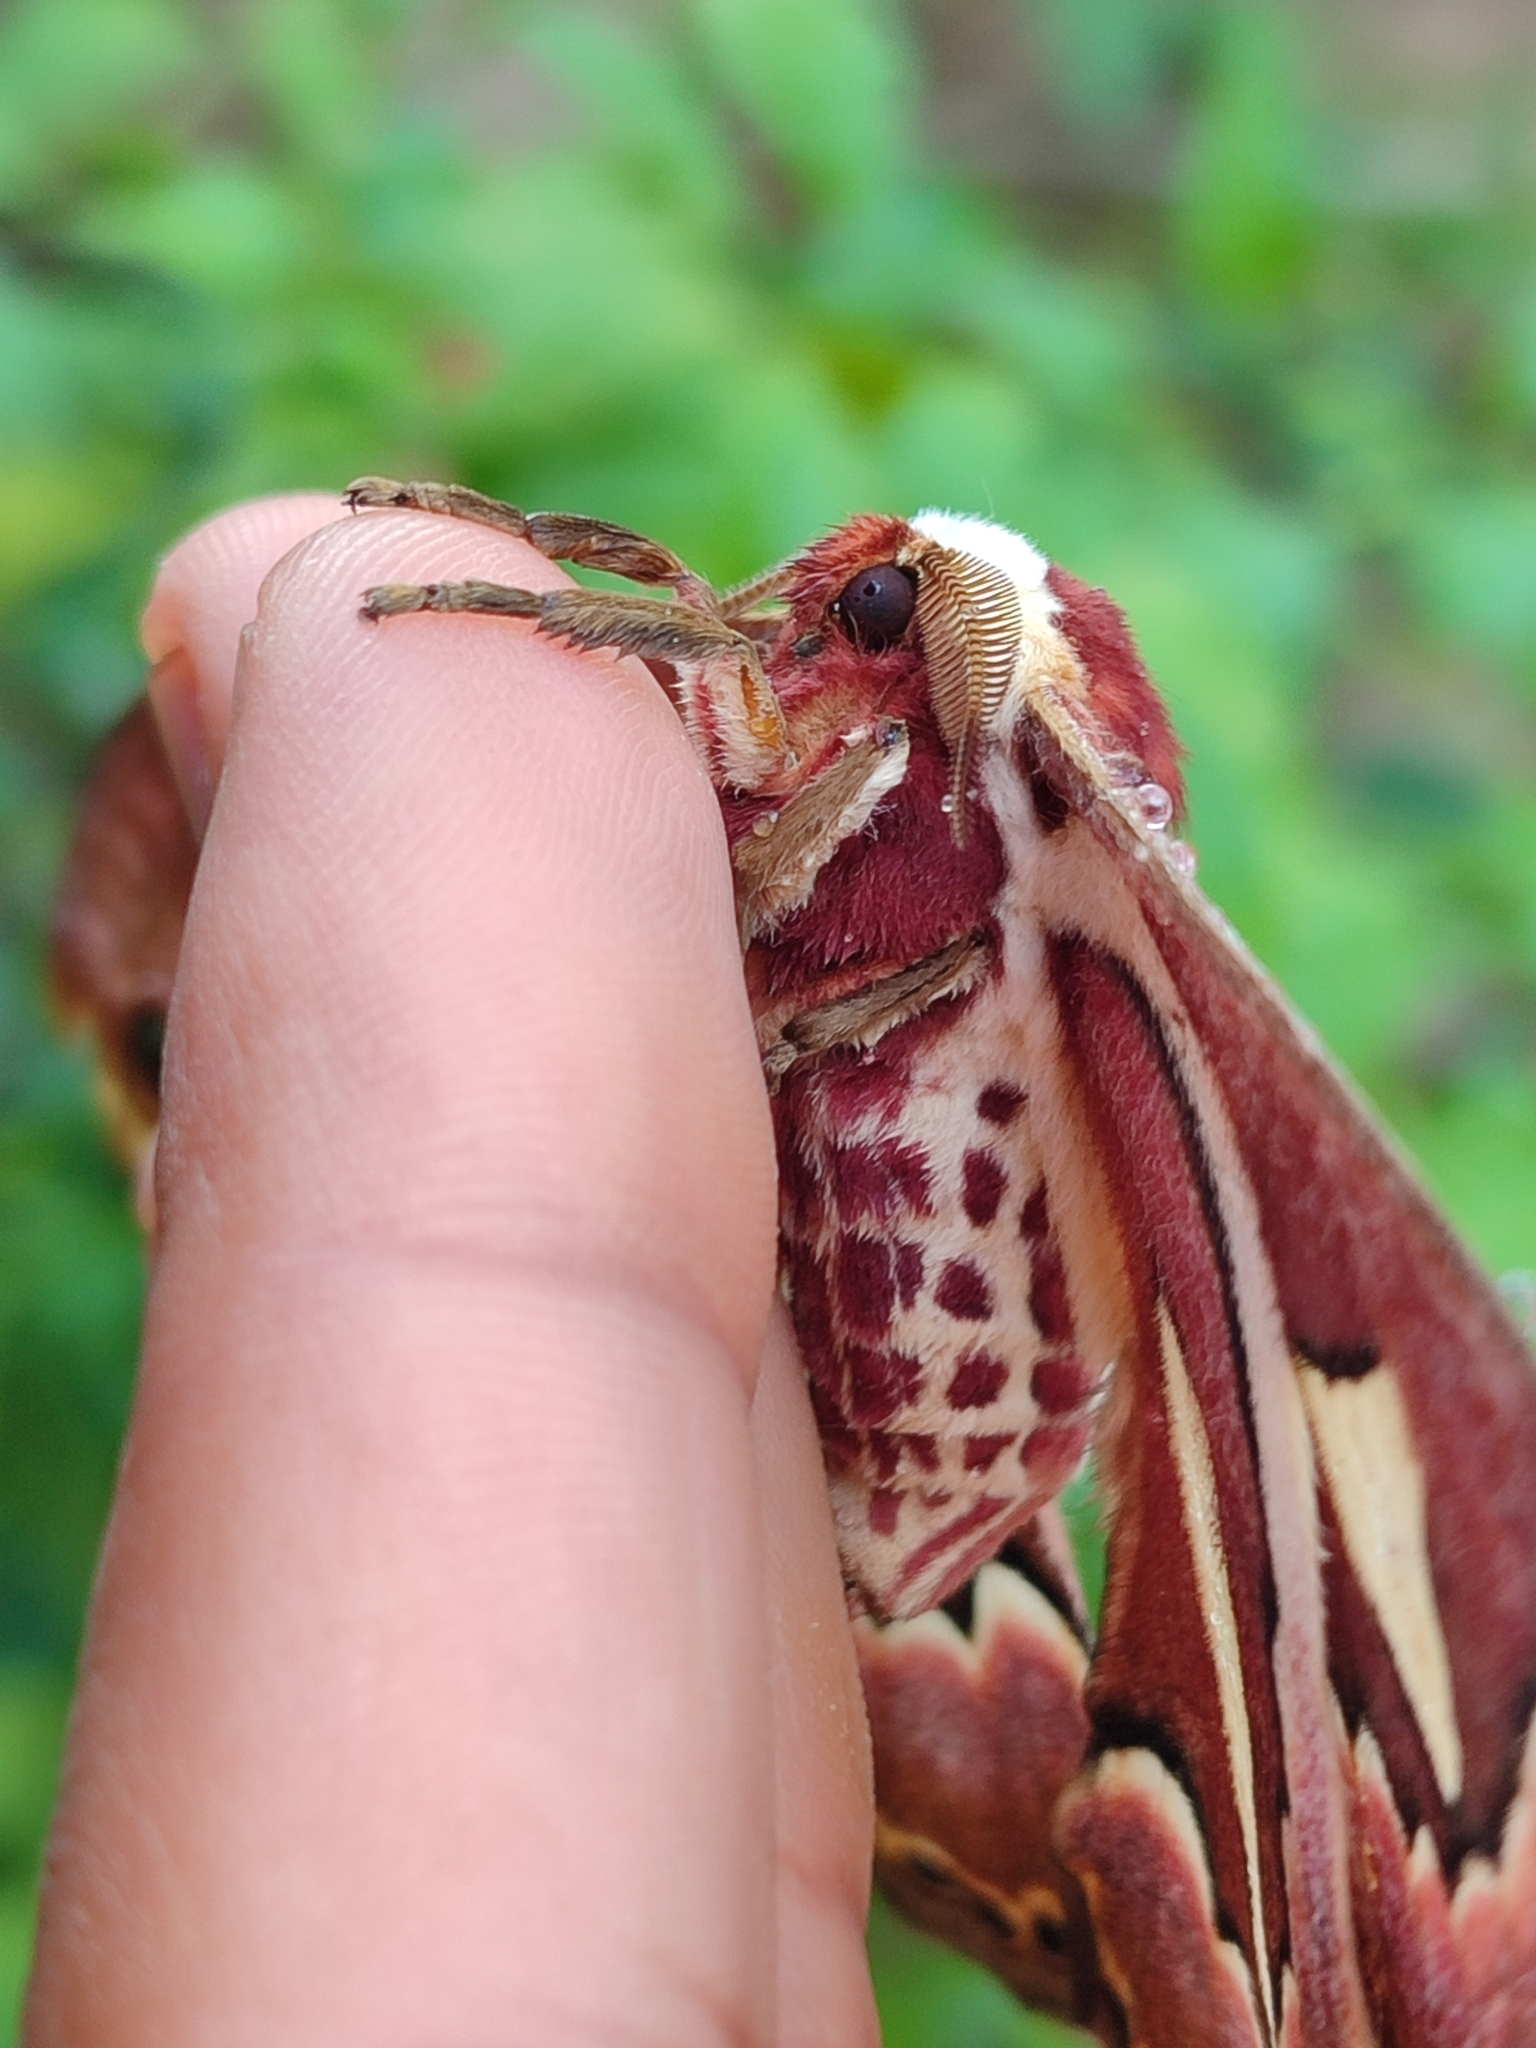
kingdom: Animalia
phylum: Arthropoda
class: Insecta
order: Lepidoptera
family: Saturniidae
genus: Rothschildia
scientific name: Rothschildia jacobaeae
